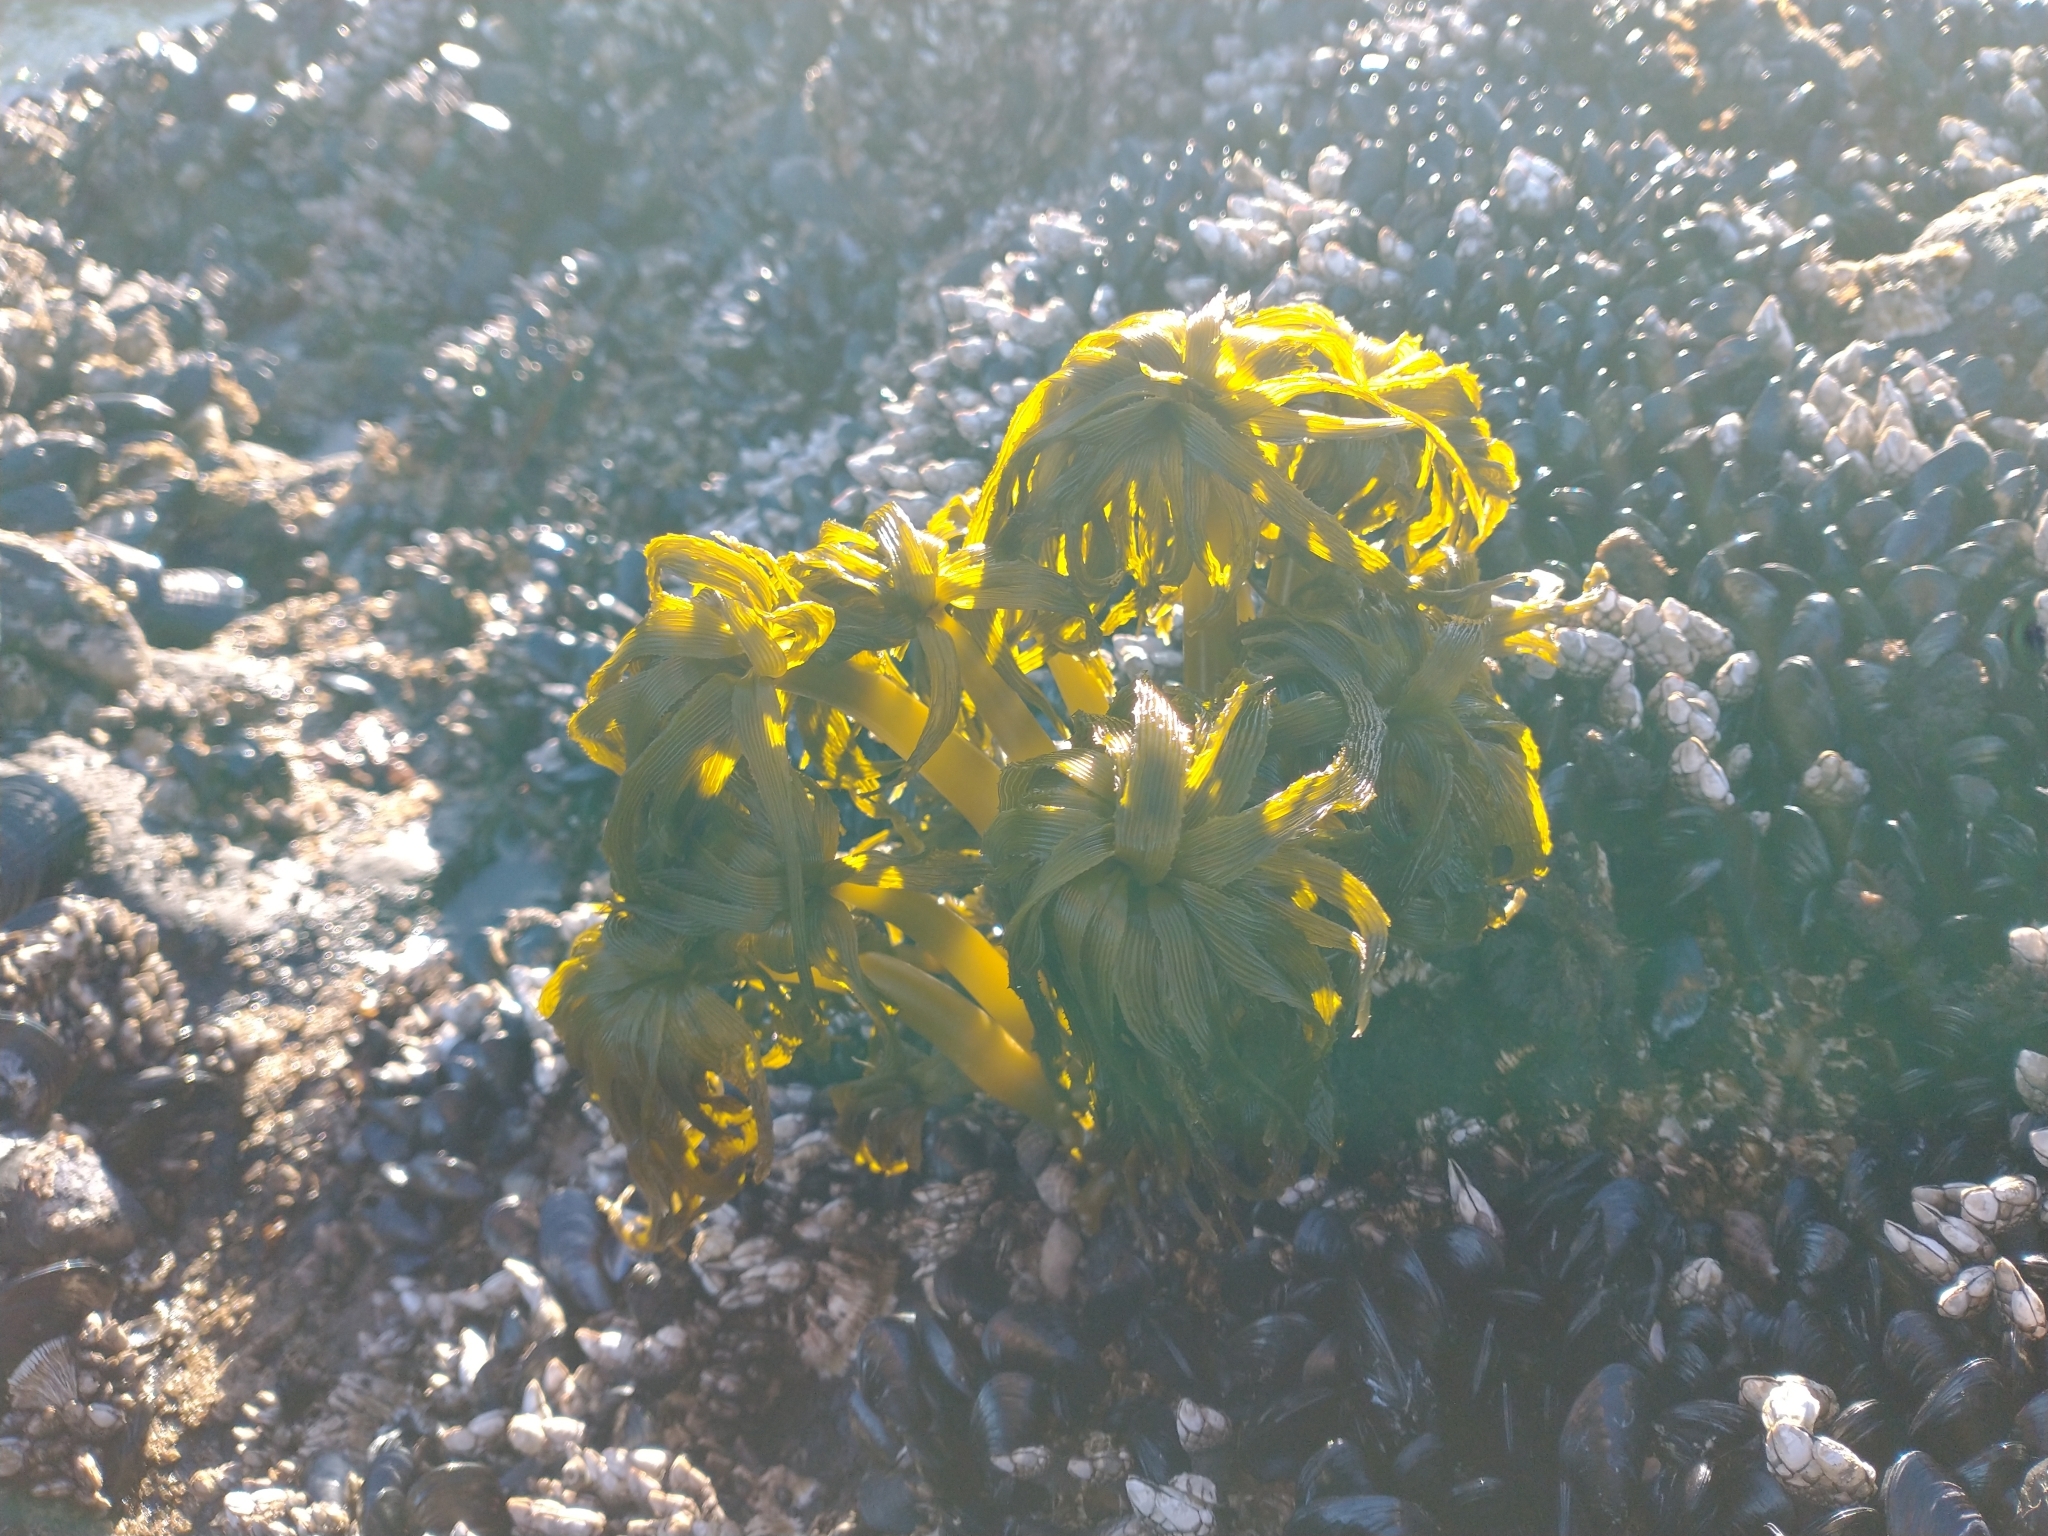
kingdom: Chromista
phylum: Ochrophyta
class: Phaeophyceae
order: Laminariales
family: Laminariaceae
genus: Postelsia
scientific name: Postelsia palmiformis
